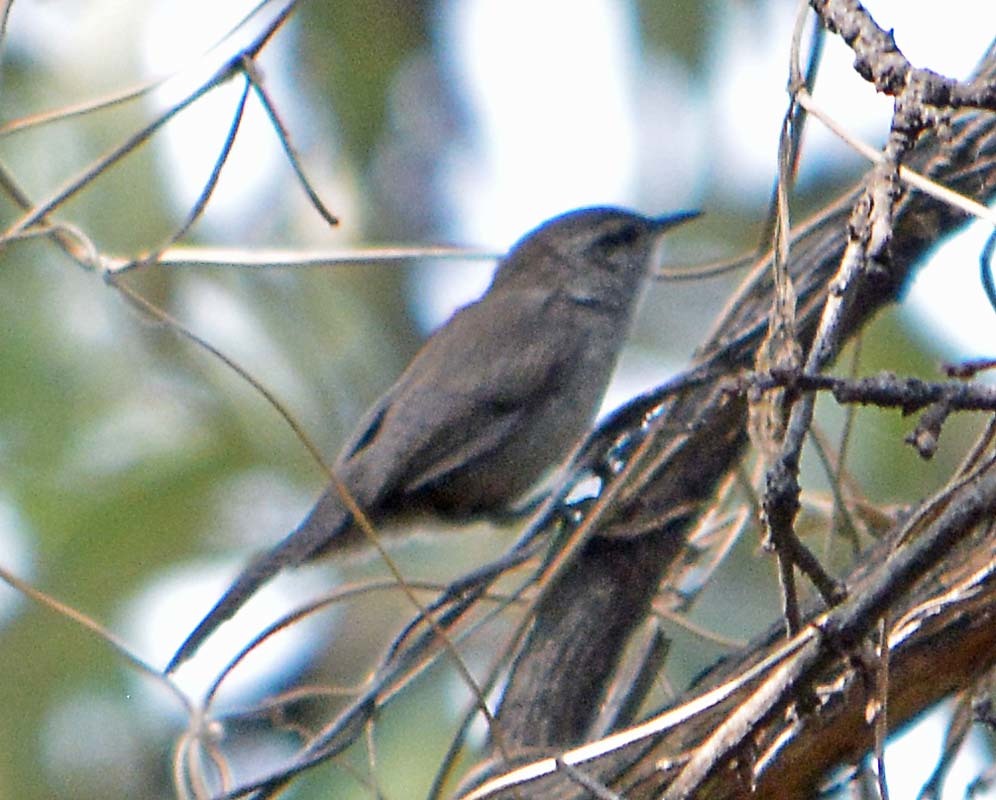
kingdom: Animalia
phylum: Chordata
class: Aves
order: Passeriformes
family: Troglodytidae
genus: Thryomanes
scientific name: Thryomanes bewickii
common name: Bewick's wren
